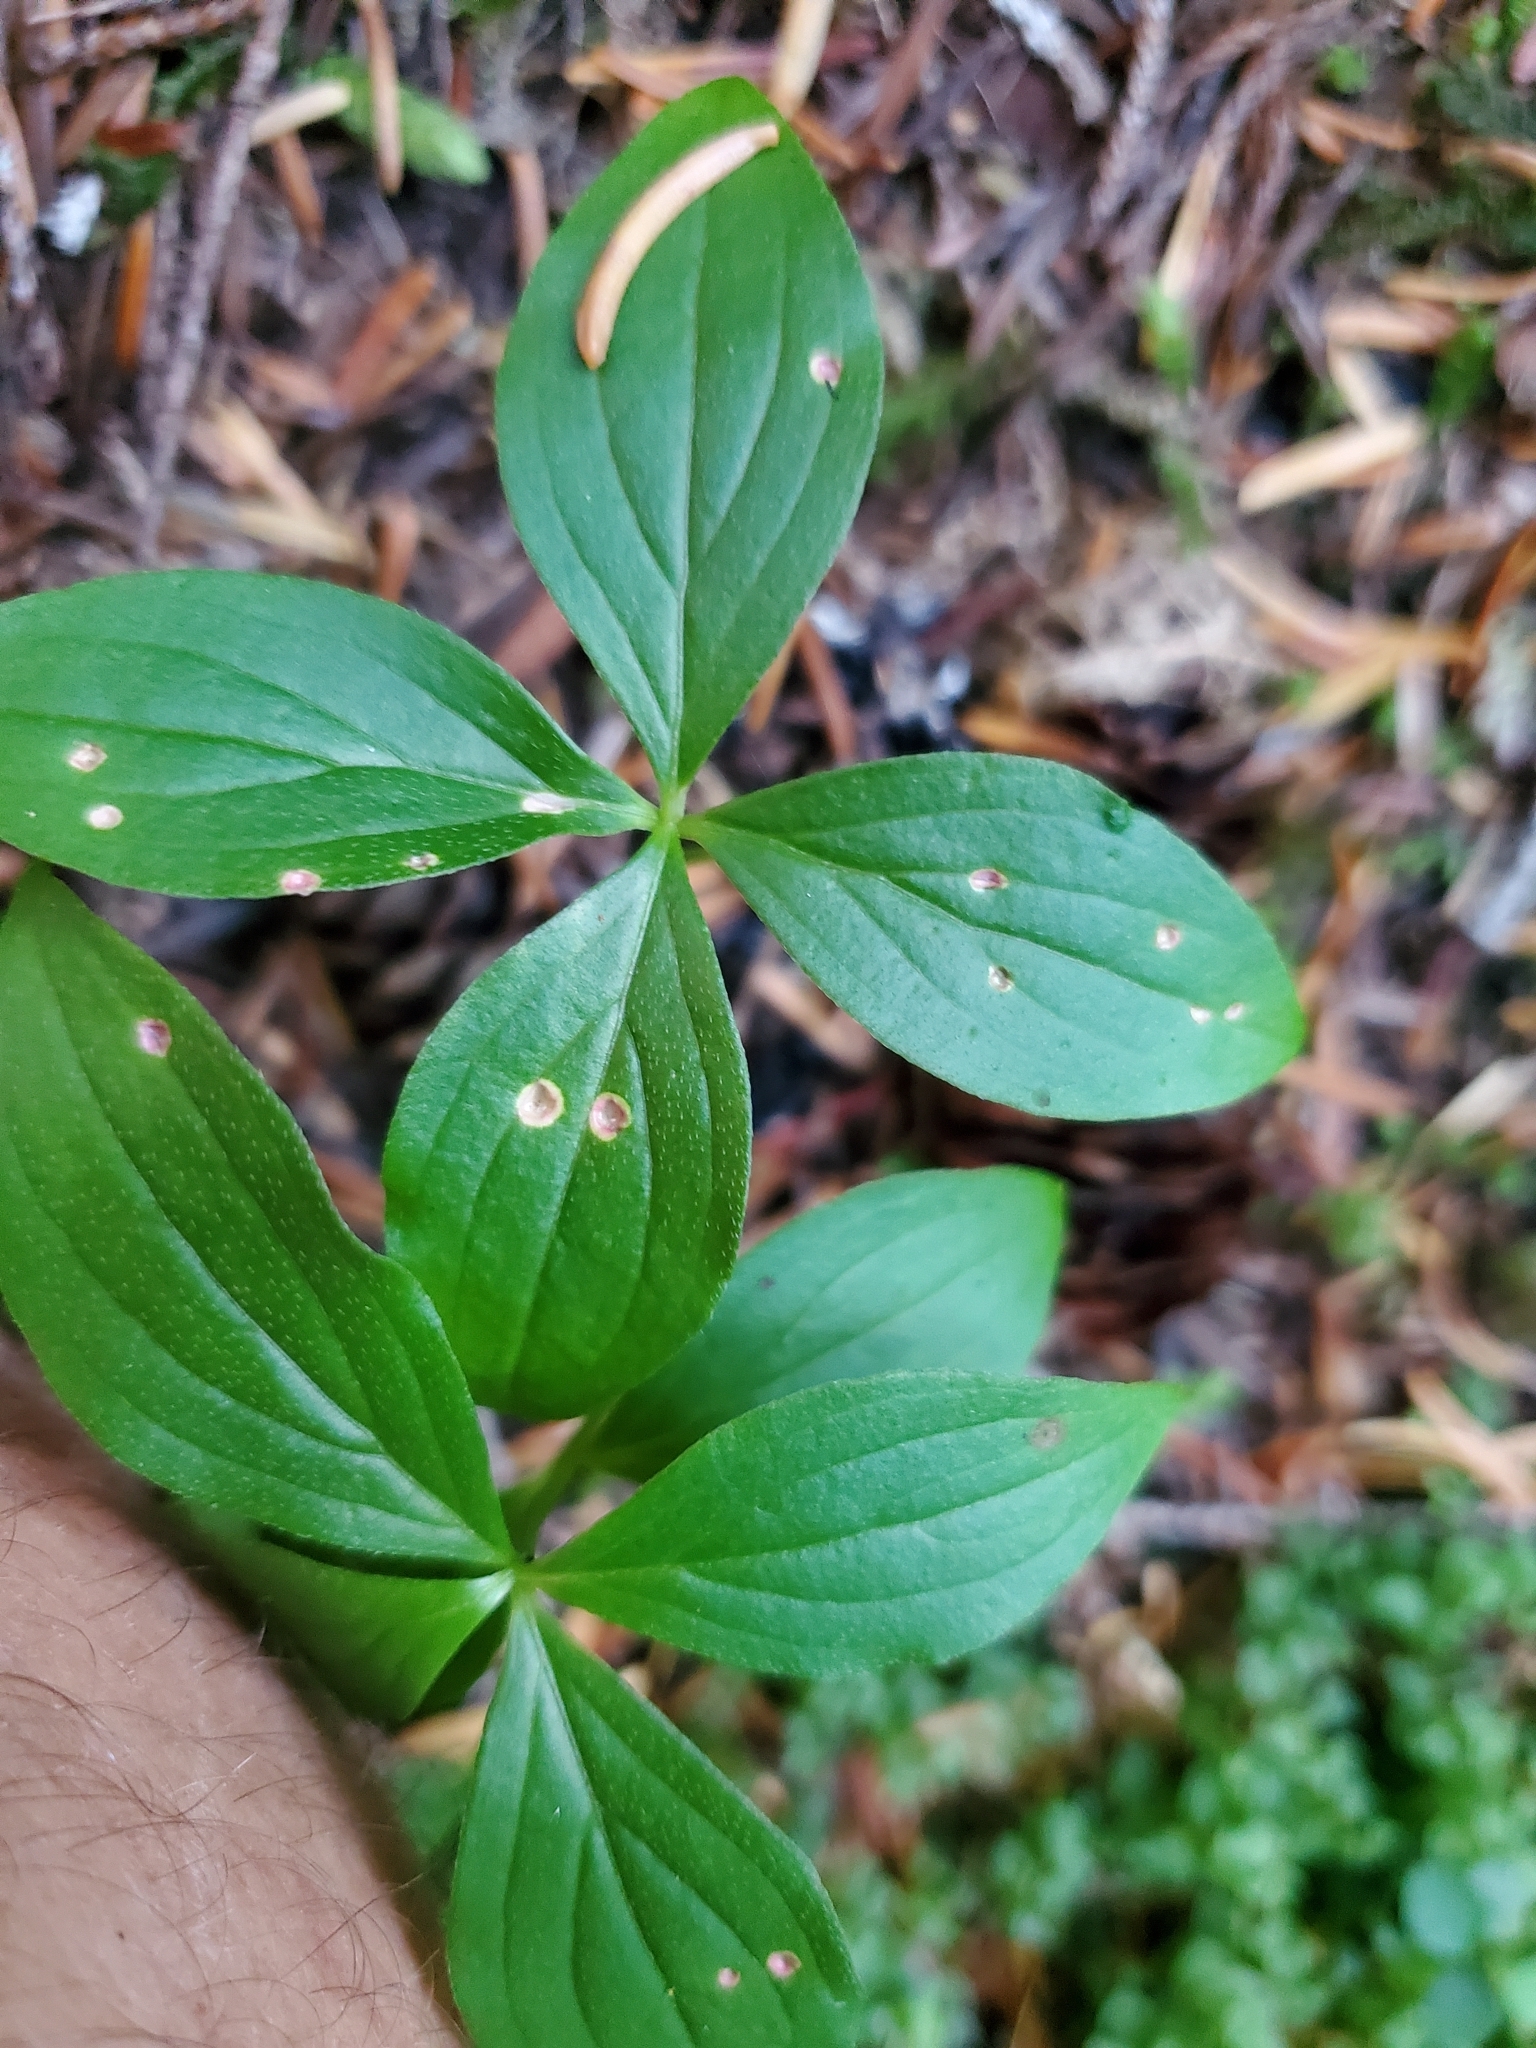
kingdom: Plantae
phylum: Tracheophyta
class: Magnoliopsida
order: Cornales
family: Cornaceae
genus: Cornus
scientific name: Cornus unalaschkensis
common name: Alaska bunchberry
